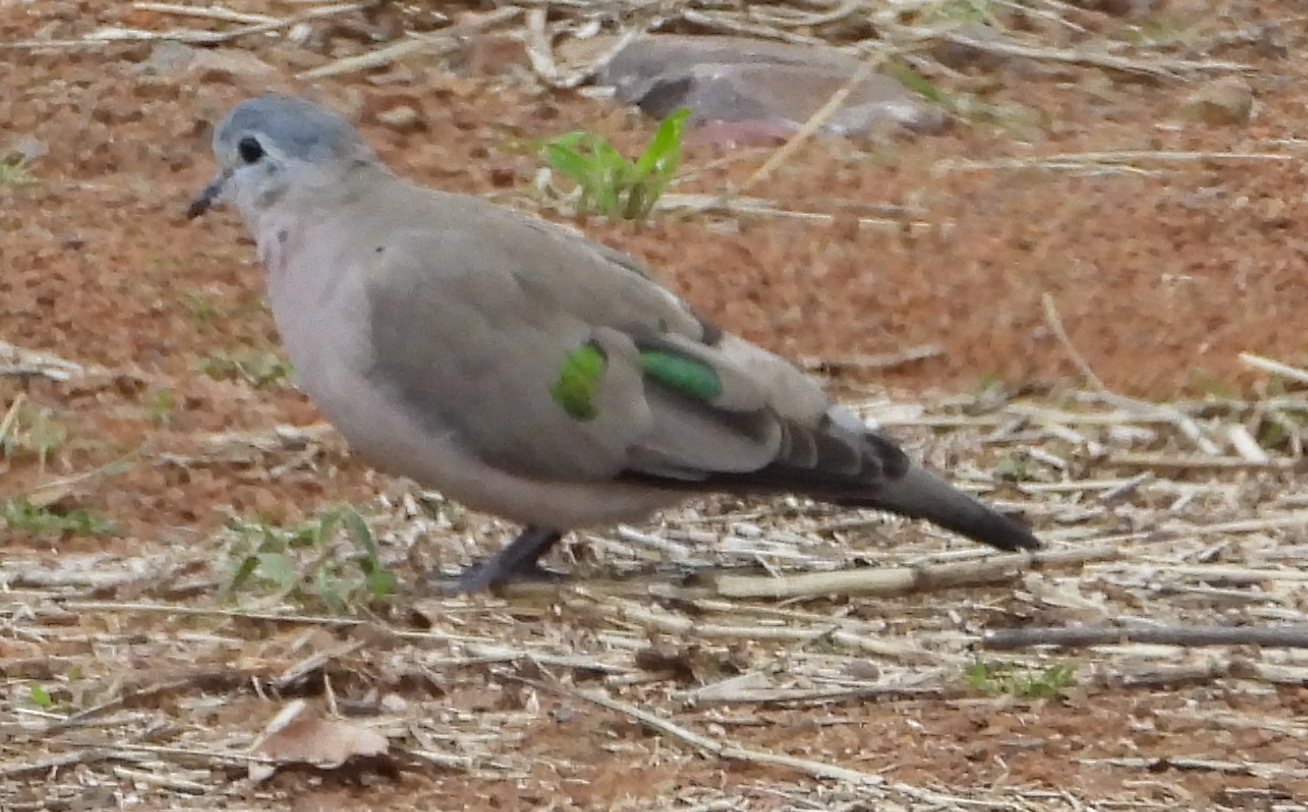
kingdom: Animalia
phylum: Chordata
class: Aves
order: Columbiformes
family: Columbidae
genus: Turtur
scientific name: Turtur chalcospilos
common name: Emerald-spotted wood dove
